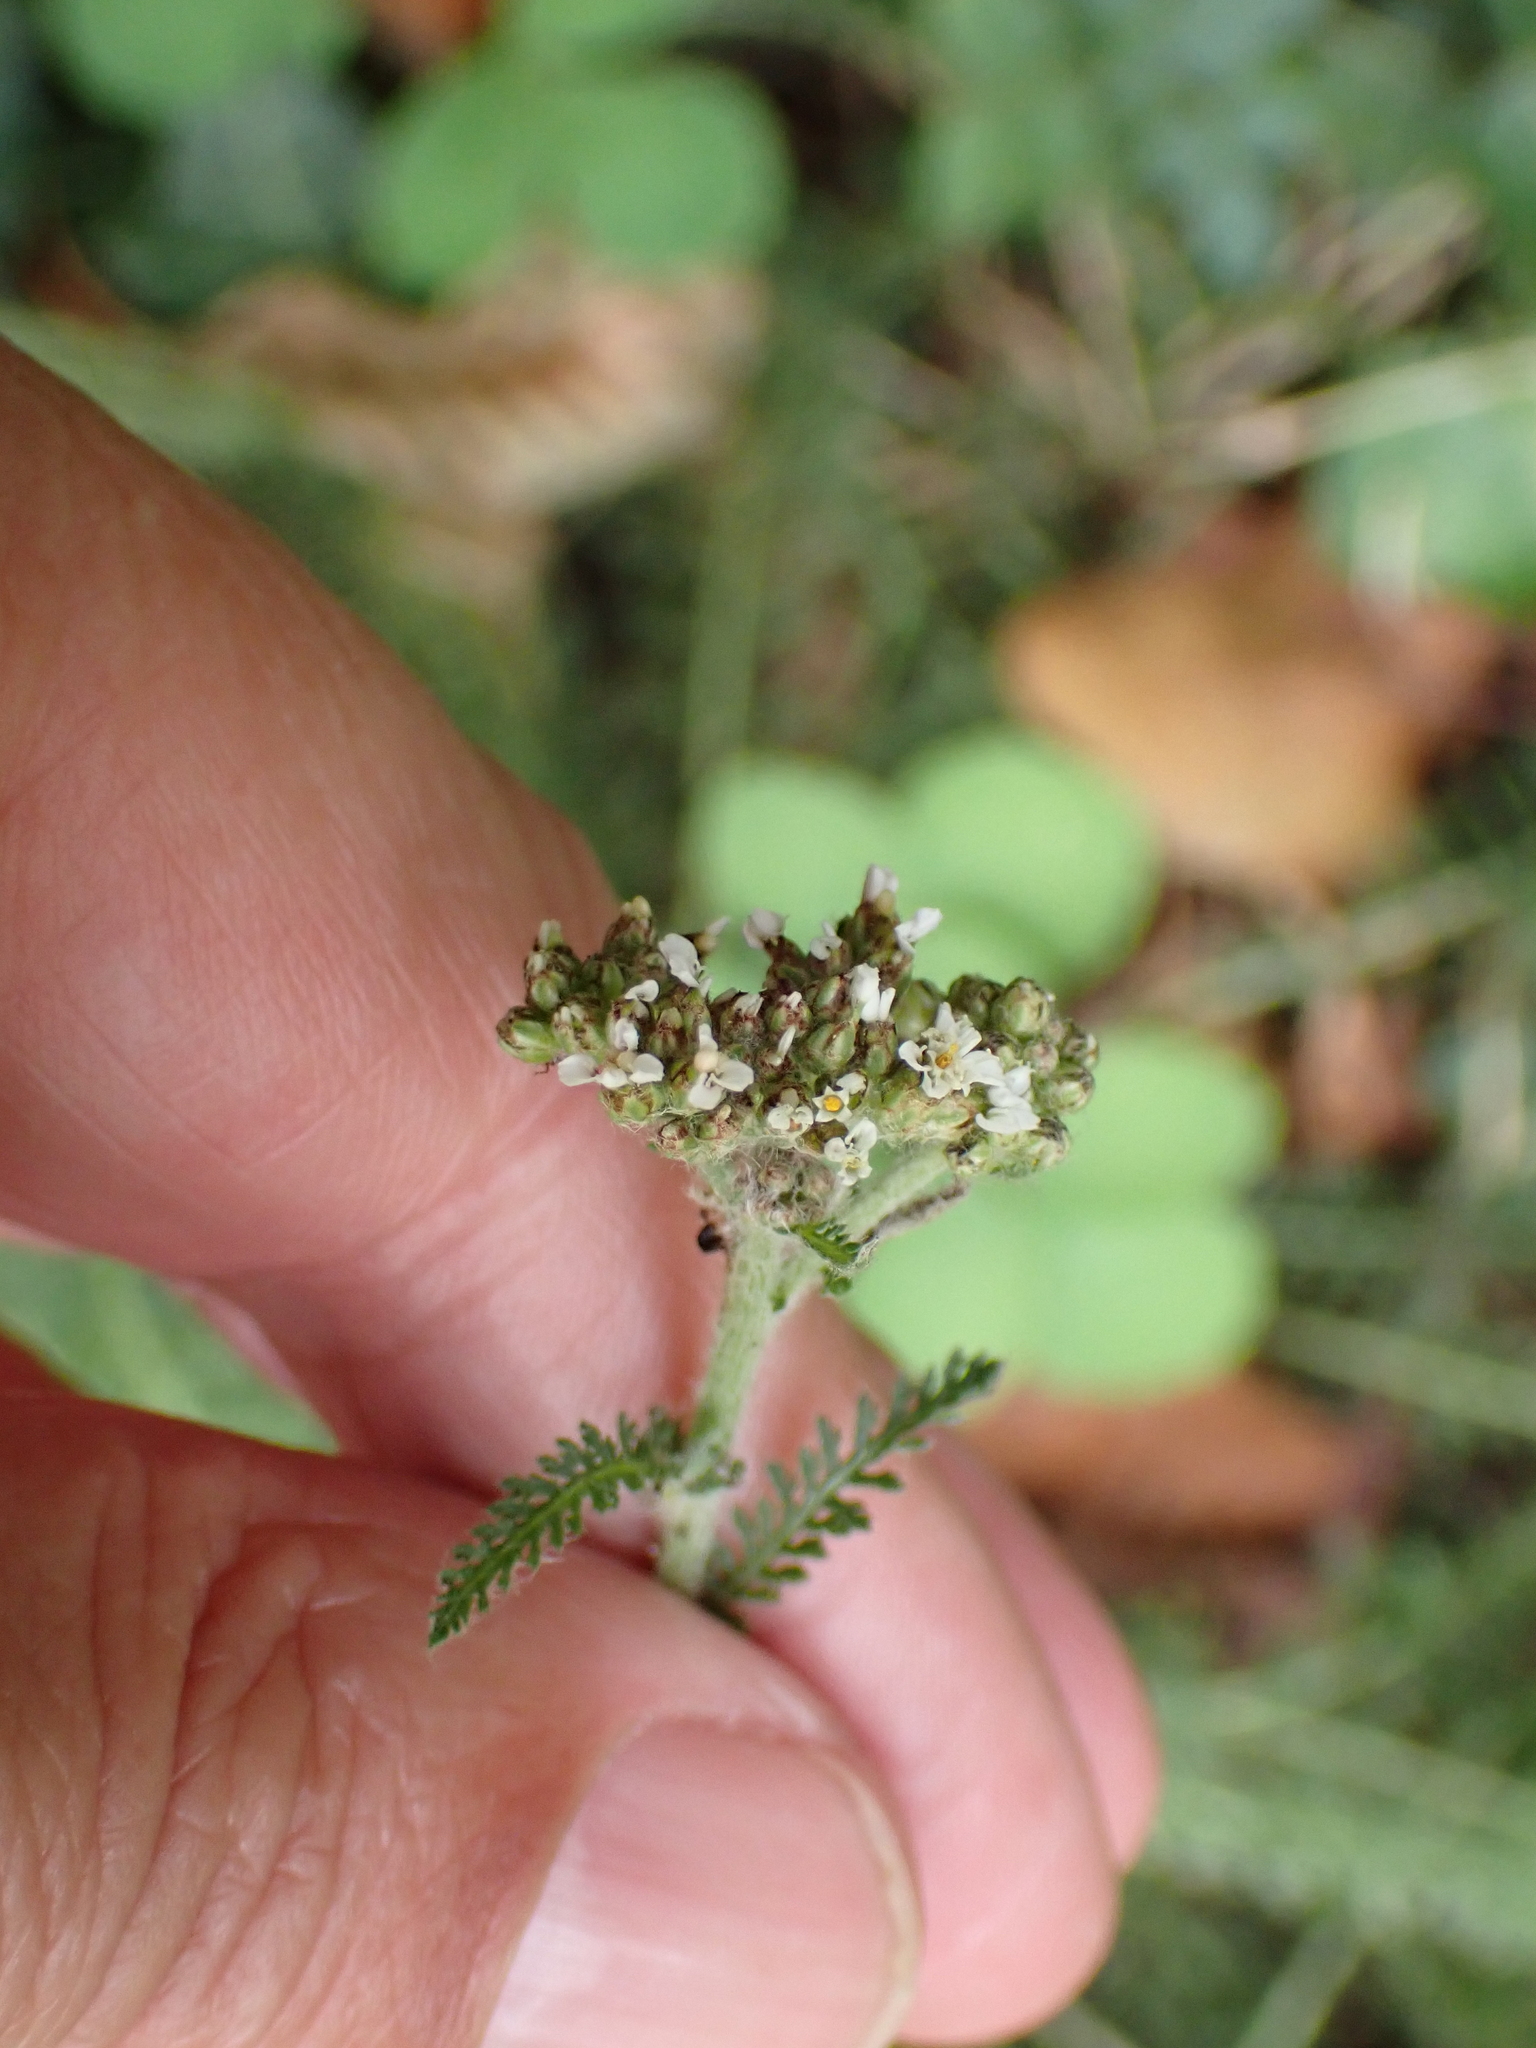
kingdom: Plantae
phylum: Tracheophyta
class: Magnoliopsida
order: Asterales
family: Asteraceae
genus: Achillea
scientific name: Achillea millefolium
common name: Yarrow
